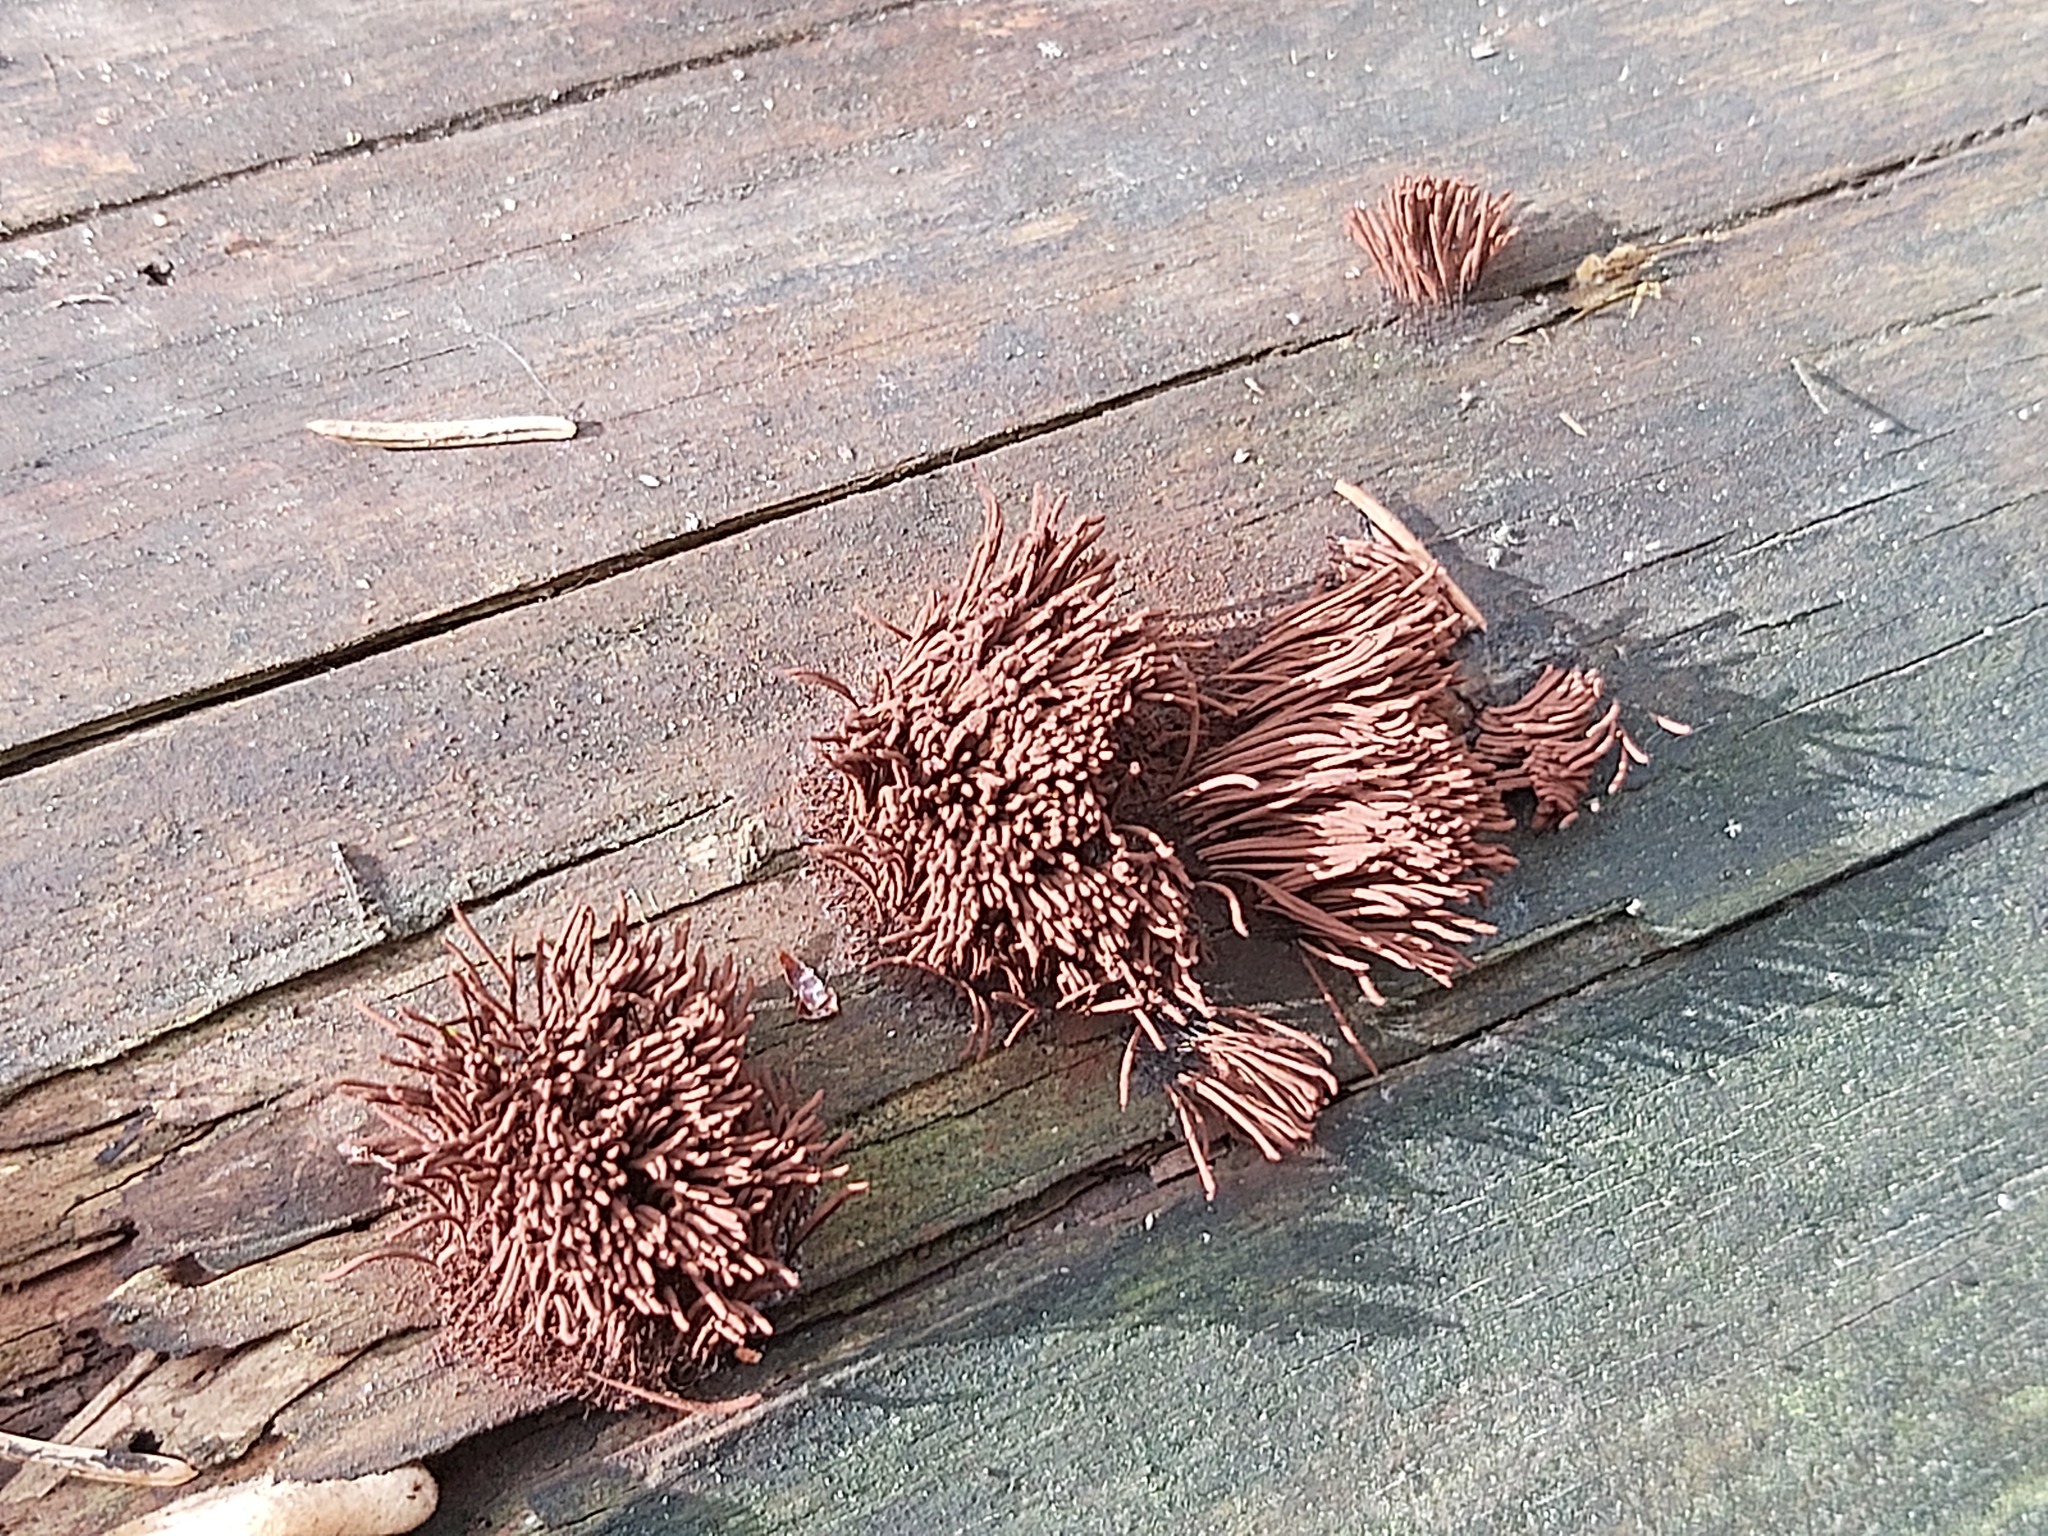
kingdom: Protozoa
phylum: Mycetozoa
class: Myxomycetes
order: Stemonitidales
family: Stemonitidaceae
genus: Stemonitis
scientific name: Stemonitis axifera
